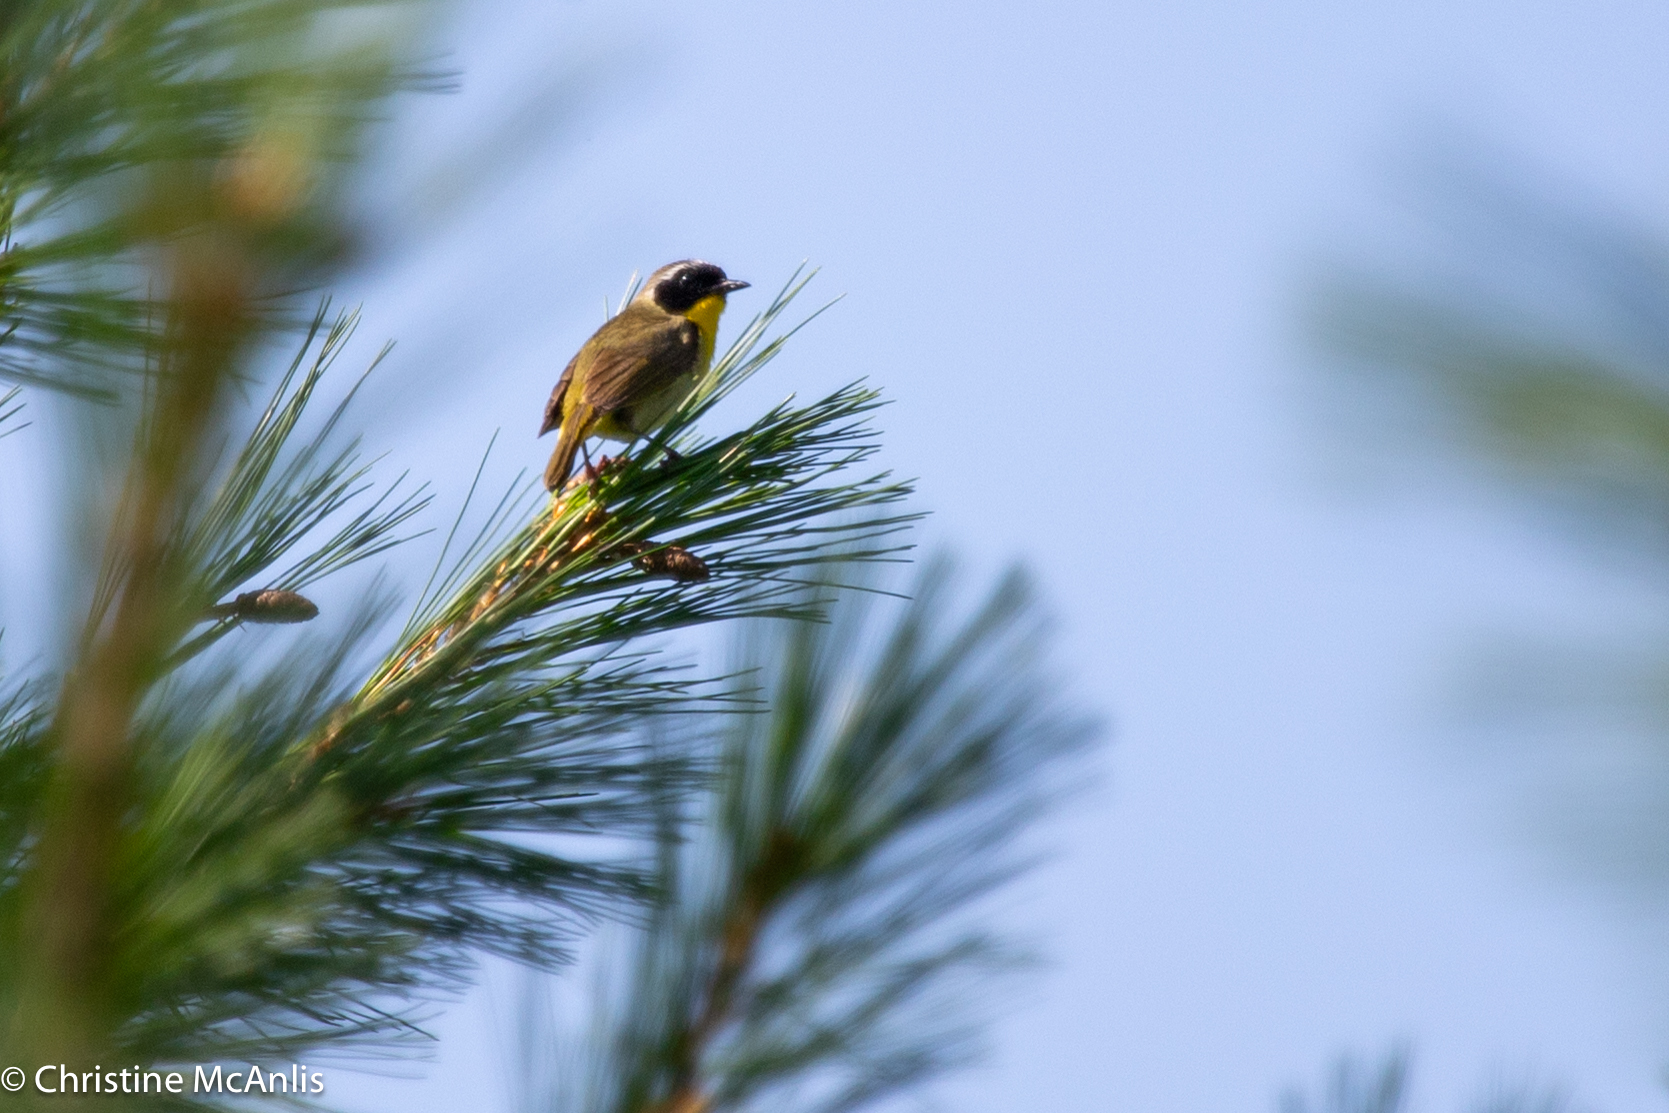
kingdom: Animalia
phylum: Chordata
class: Aves
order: Passeriformes
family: Parulidae
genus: Geothlypis
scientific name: Geothlypis trichas
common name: Common yellowthroat
